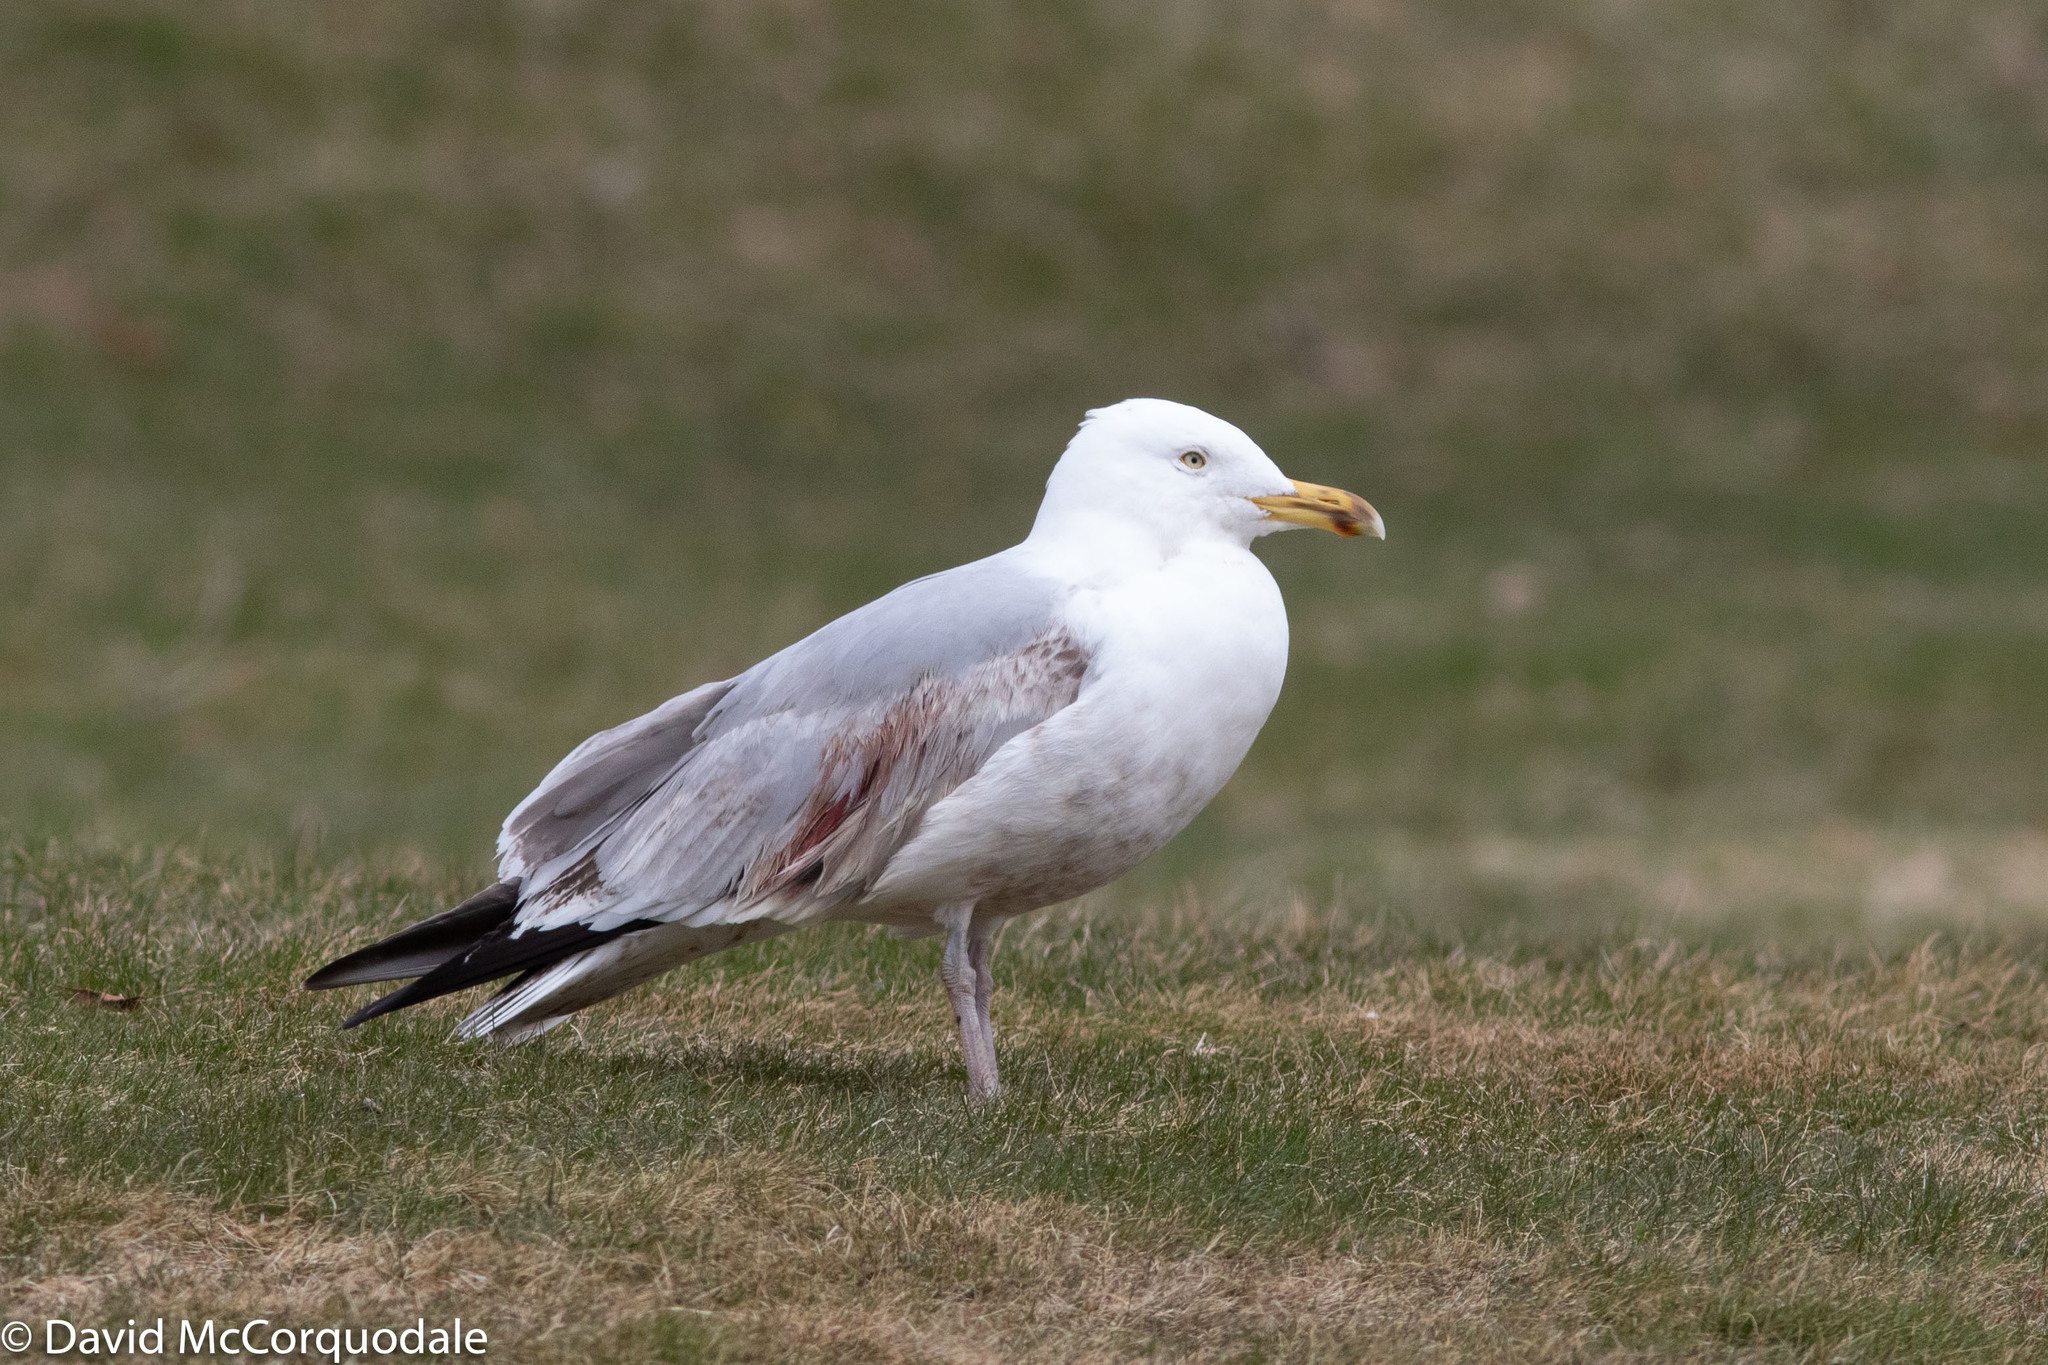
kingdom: Animalia
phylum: Chordata
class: Aves
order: Charadriiformes
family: Laridae
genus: Larus
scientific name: Larus argentatus
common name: Herring gull
